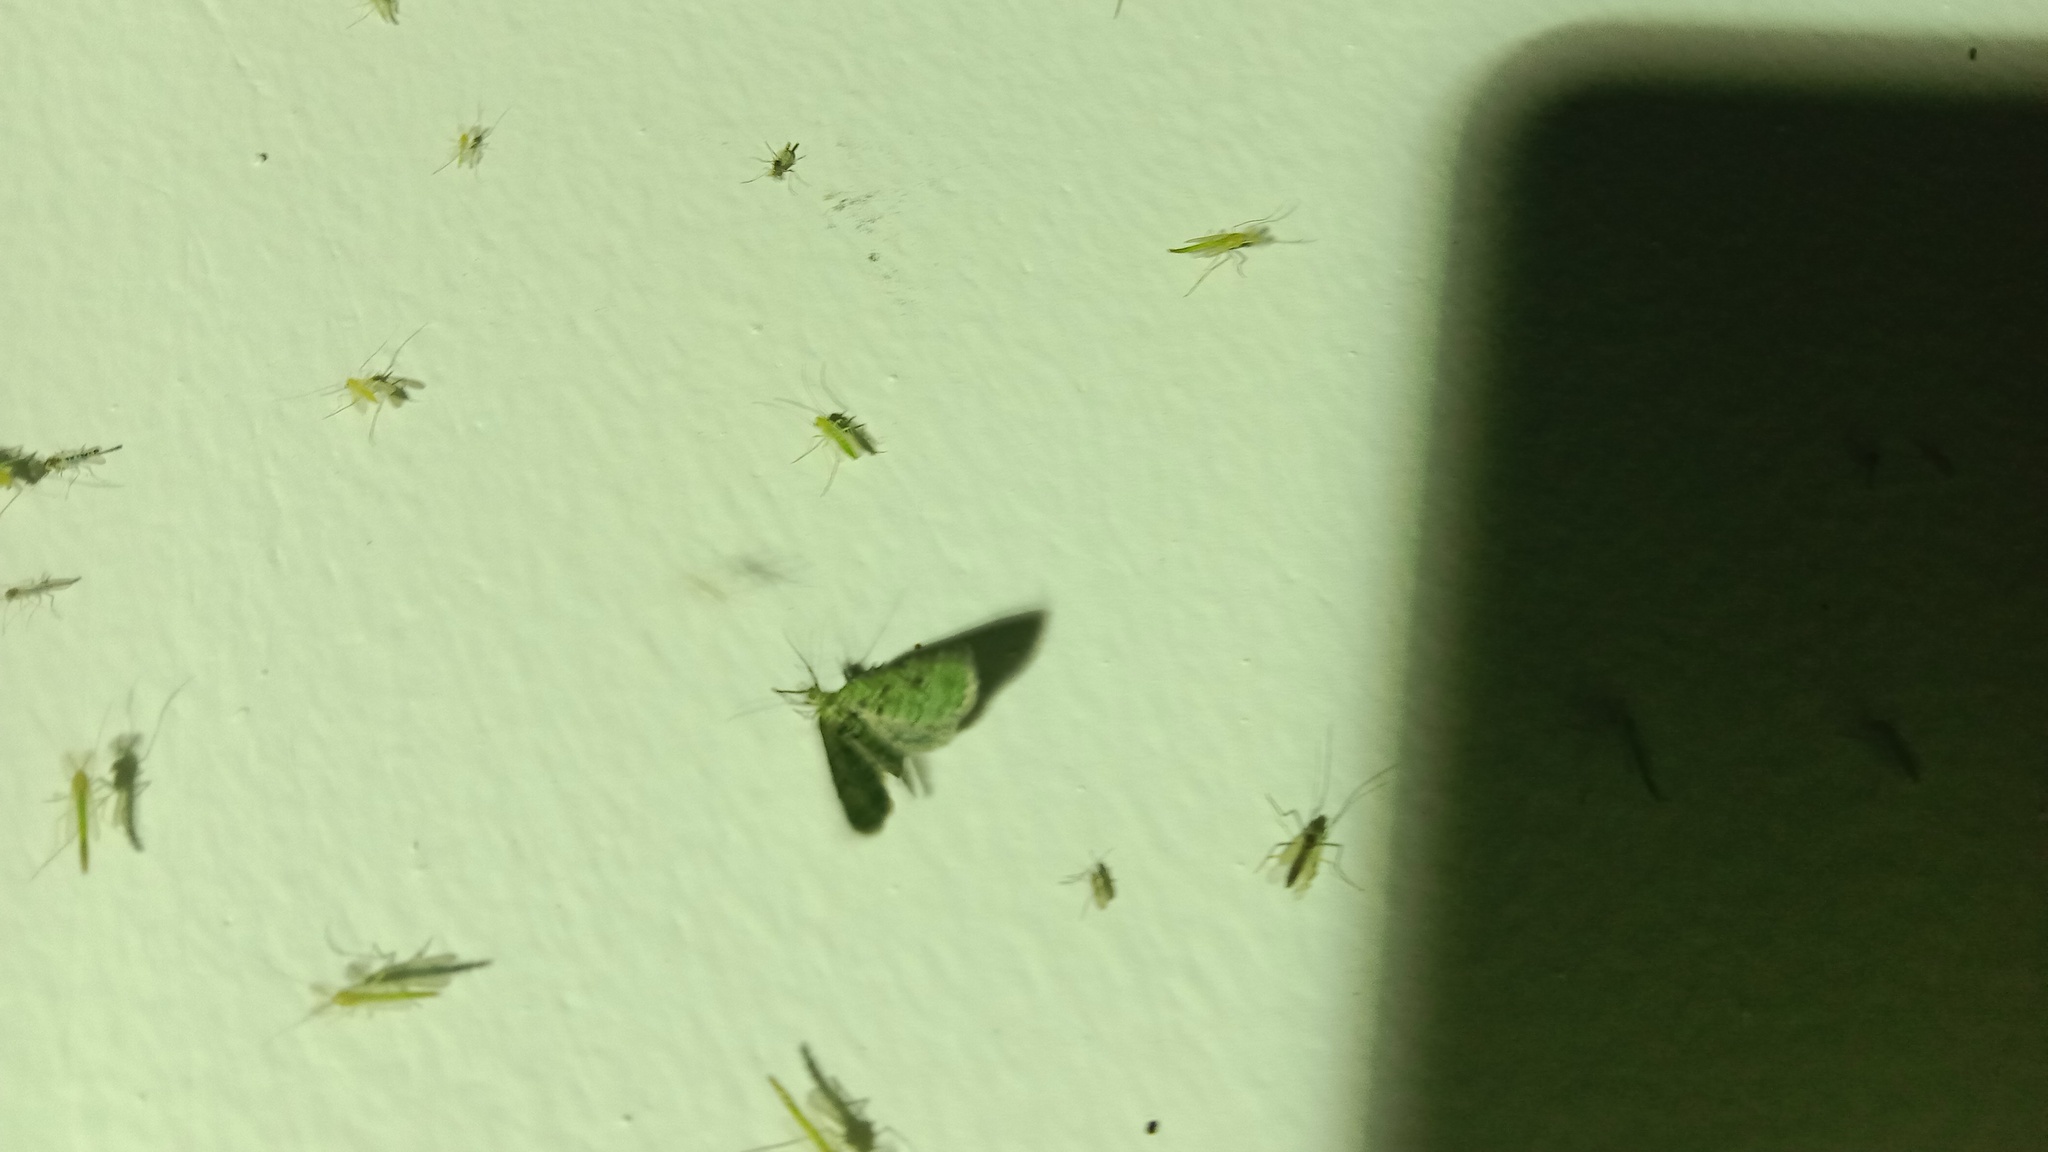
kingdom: Animalia
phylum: Arthropoda
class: Insecta
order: Lepidoptera
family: Geometridae
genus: Chloroclystis
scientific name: Chloroclystis v-ata
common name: V-pug
